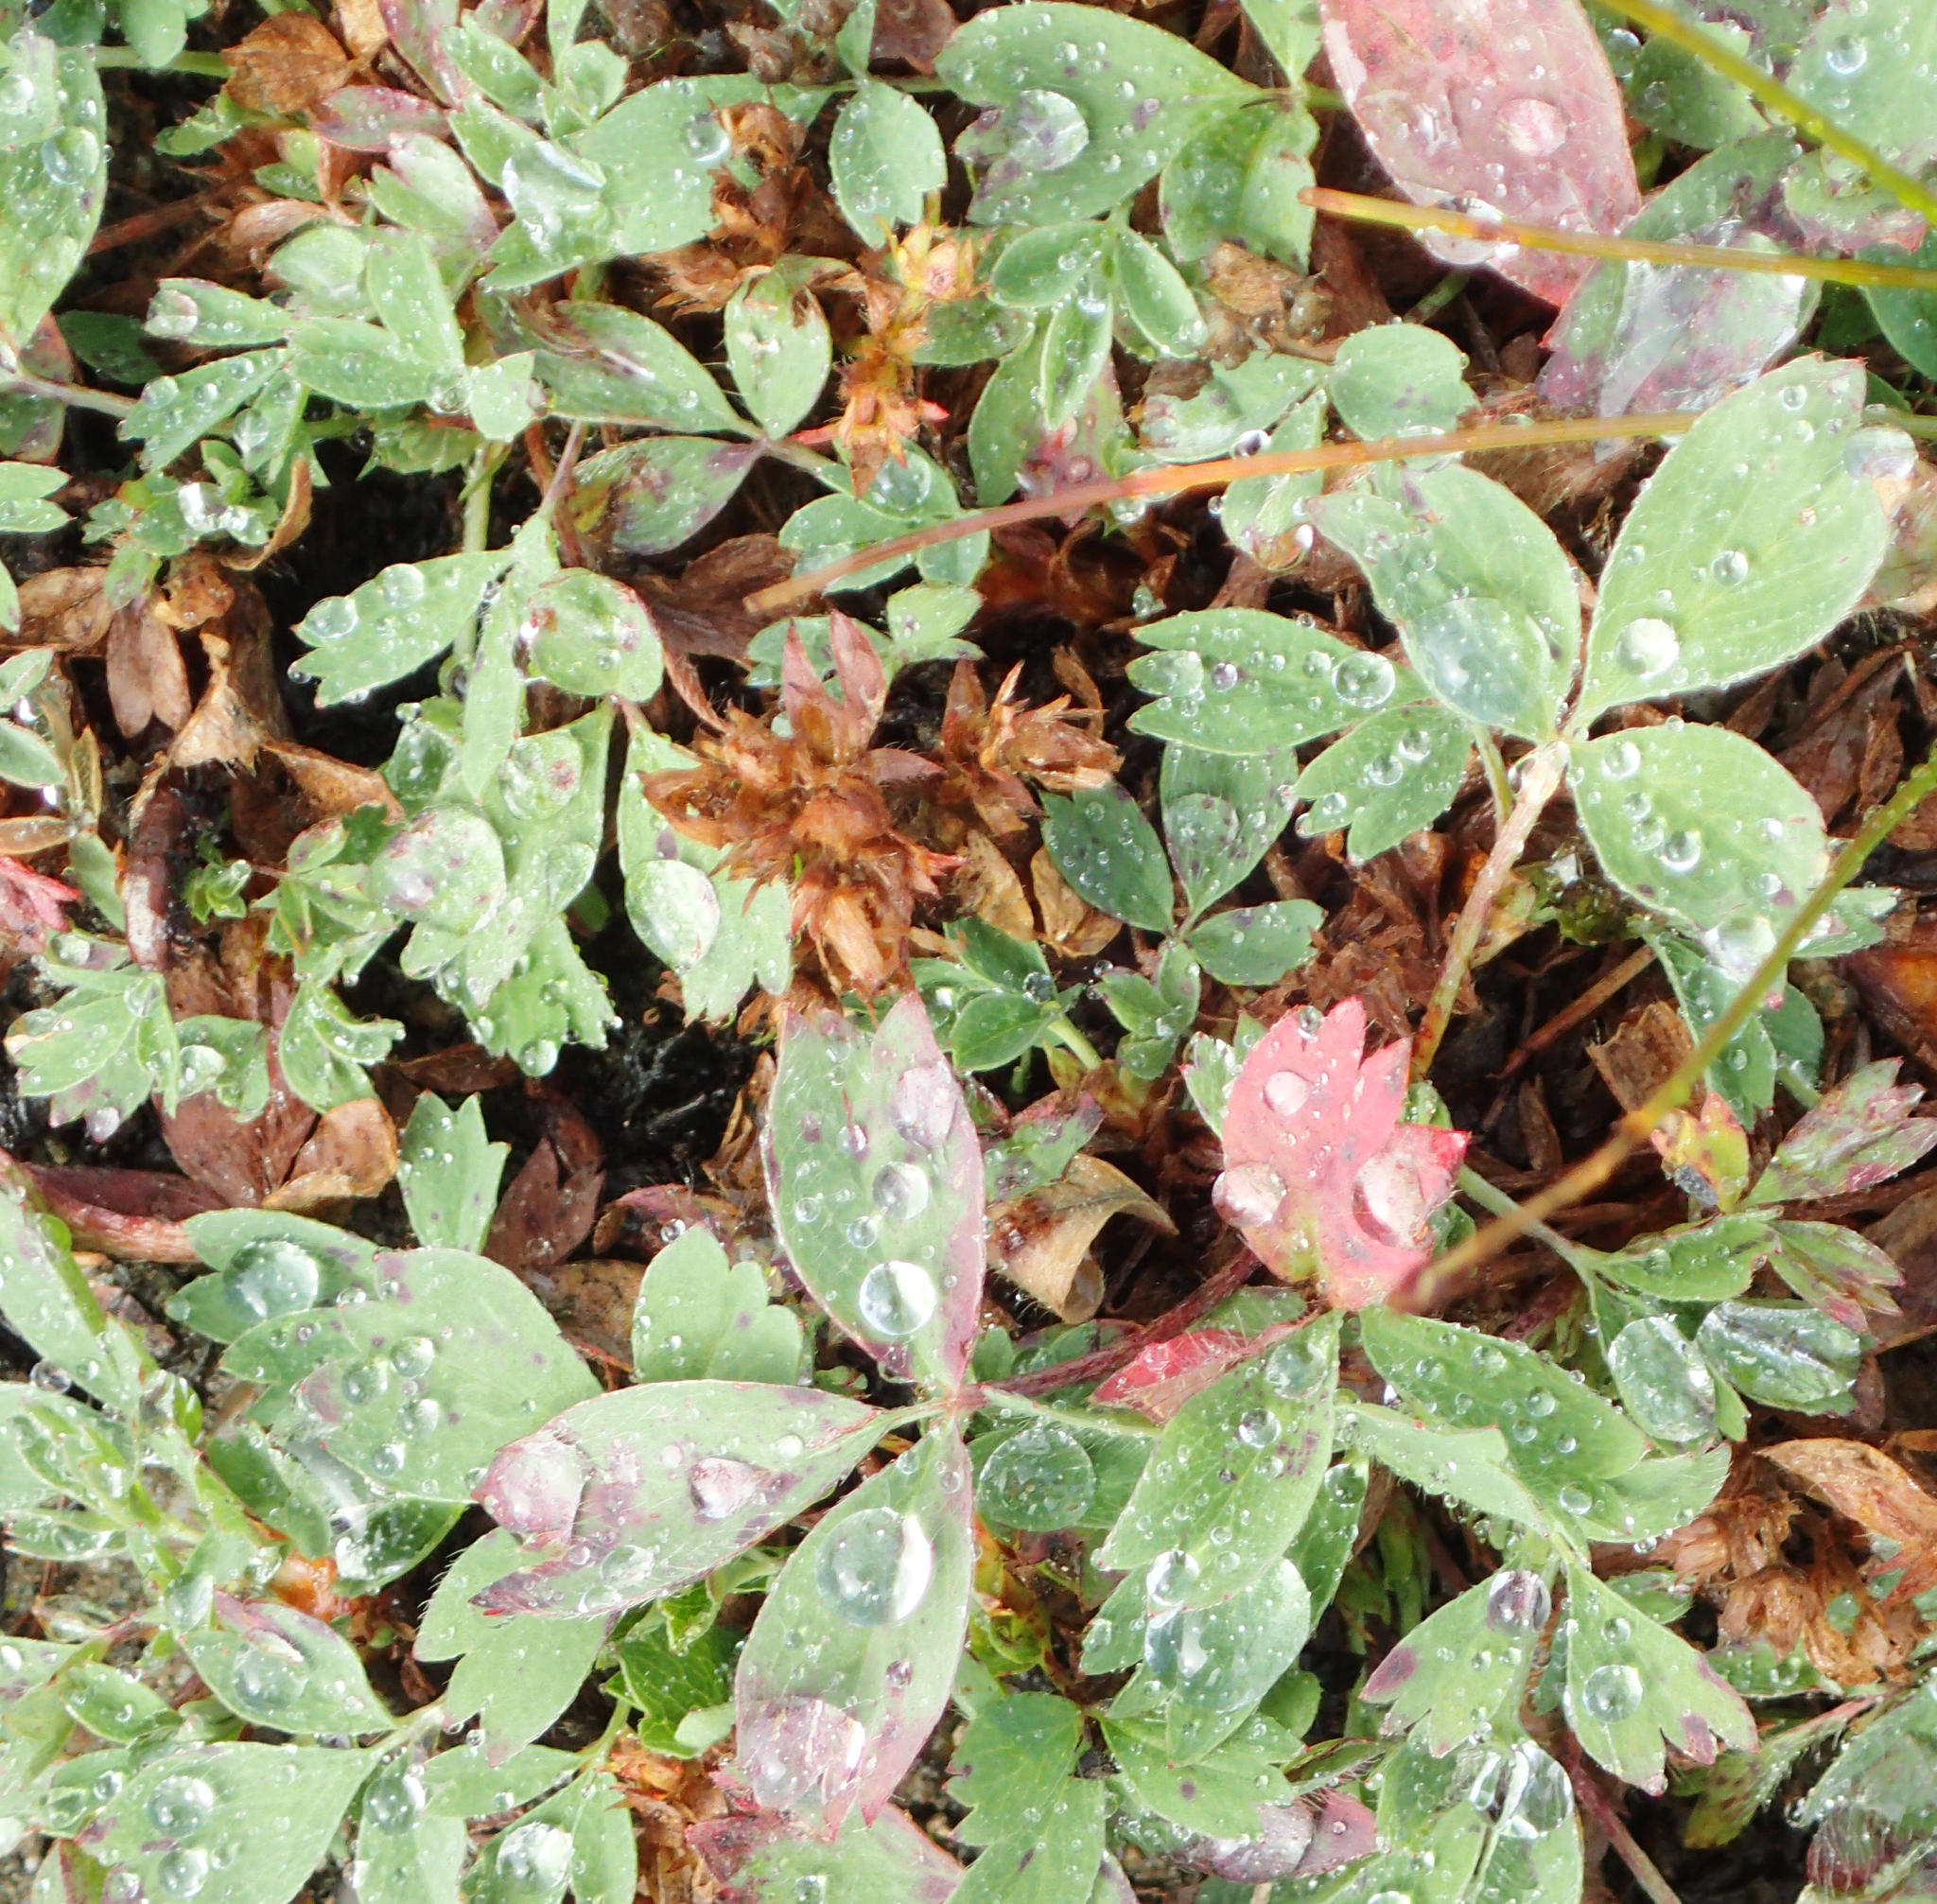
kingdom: Plantae
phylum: Tracheophyta
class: Magnoliopsida
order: Rosales
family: Rosaceae
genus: Sibbaldia
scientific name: Sibbaldia procumbens
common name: Creeping sibbaldia
